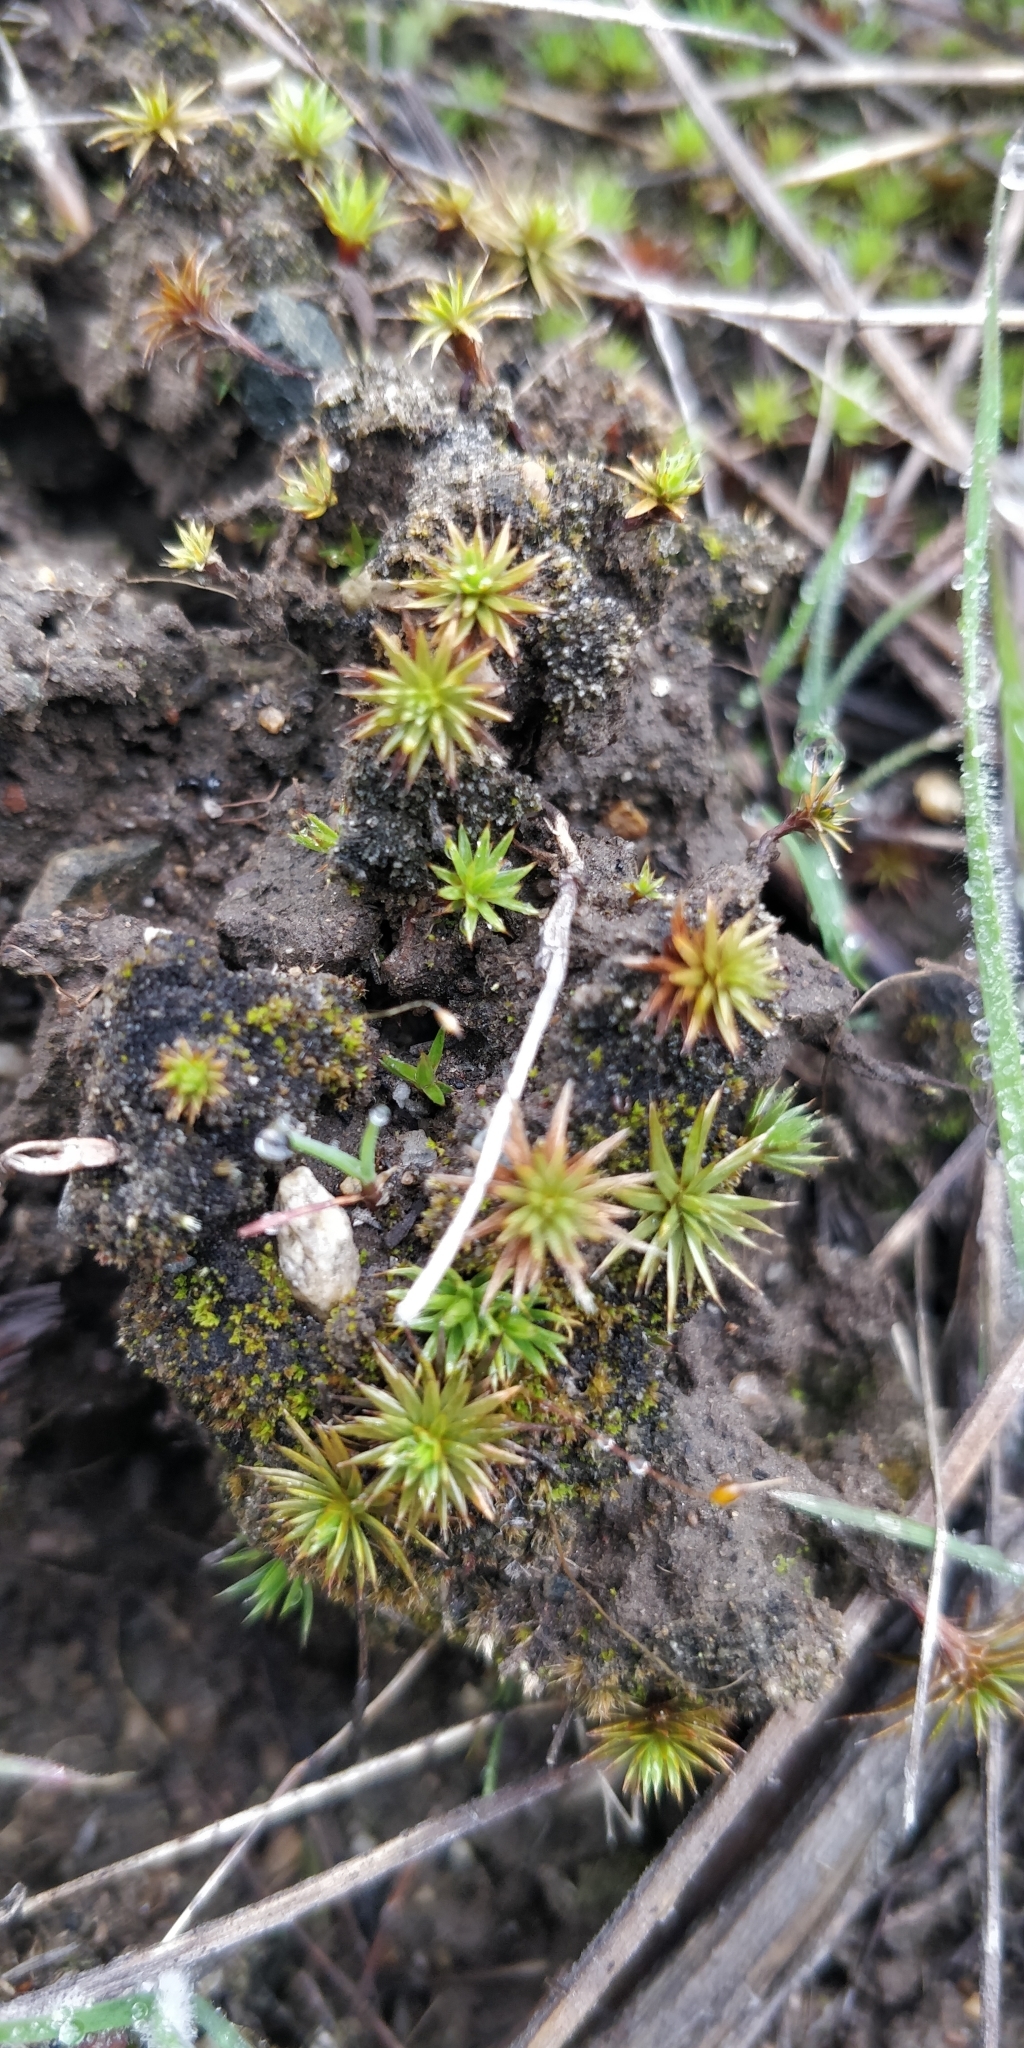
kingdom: Plantae
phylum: Bryophyta
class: Polytrichopsida
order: Polytrichales
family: Polytrichaceae
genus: Polytrichum
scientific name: Polytrichum juniperinum
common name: Juniper haircap moss
